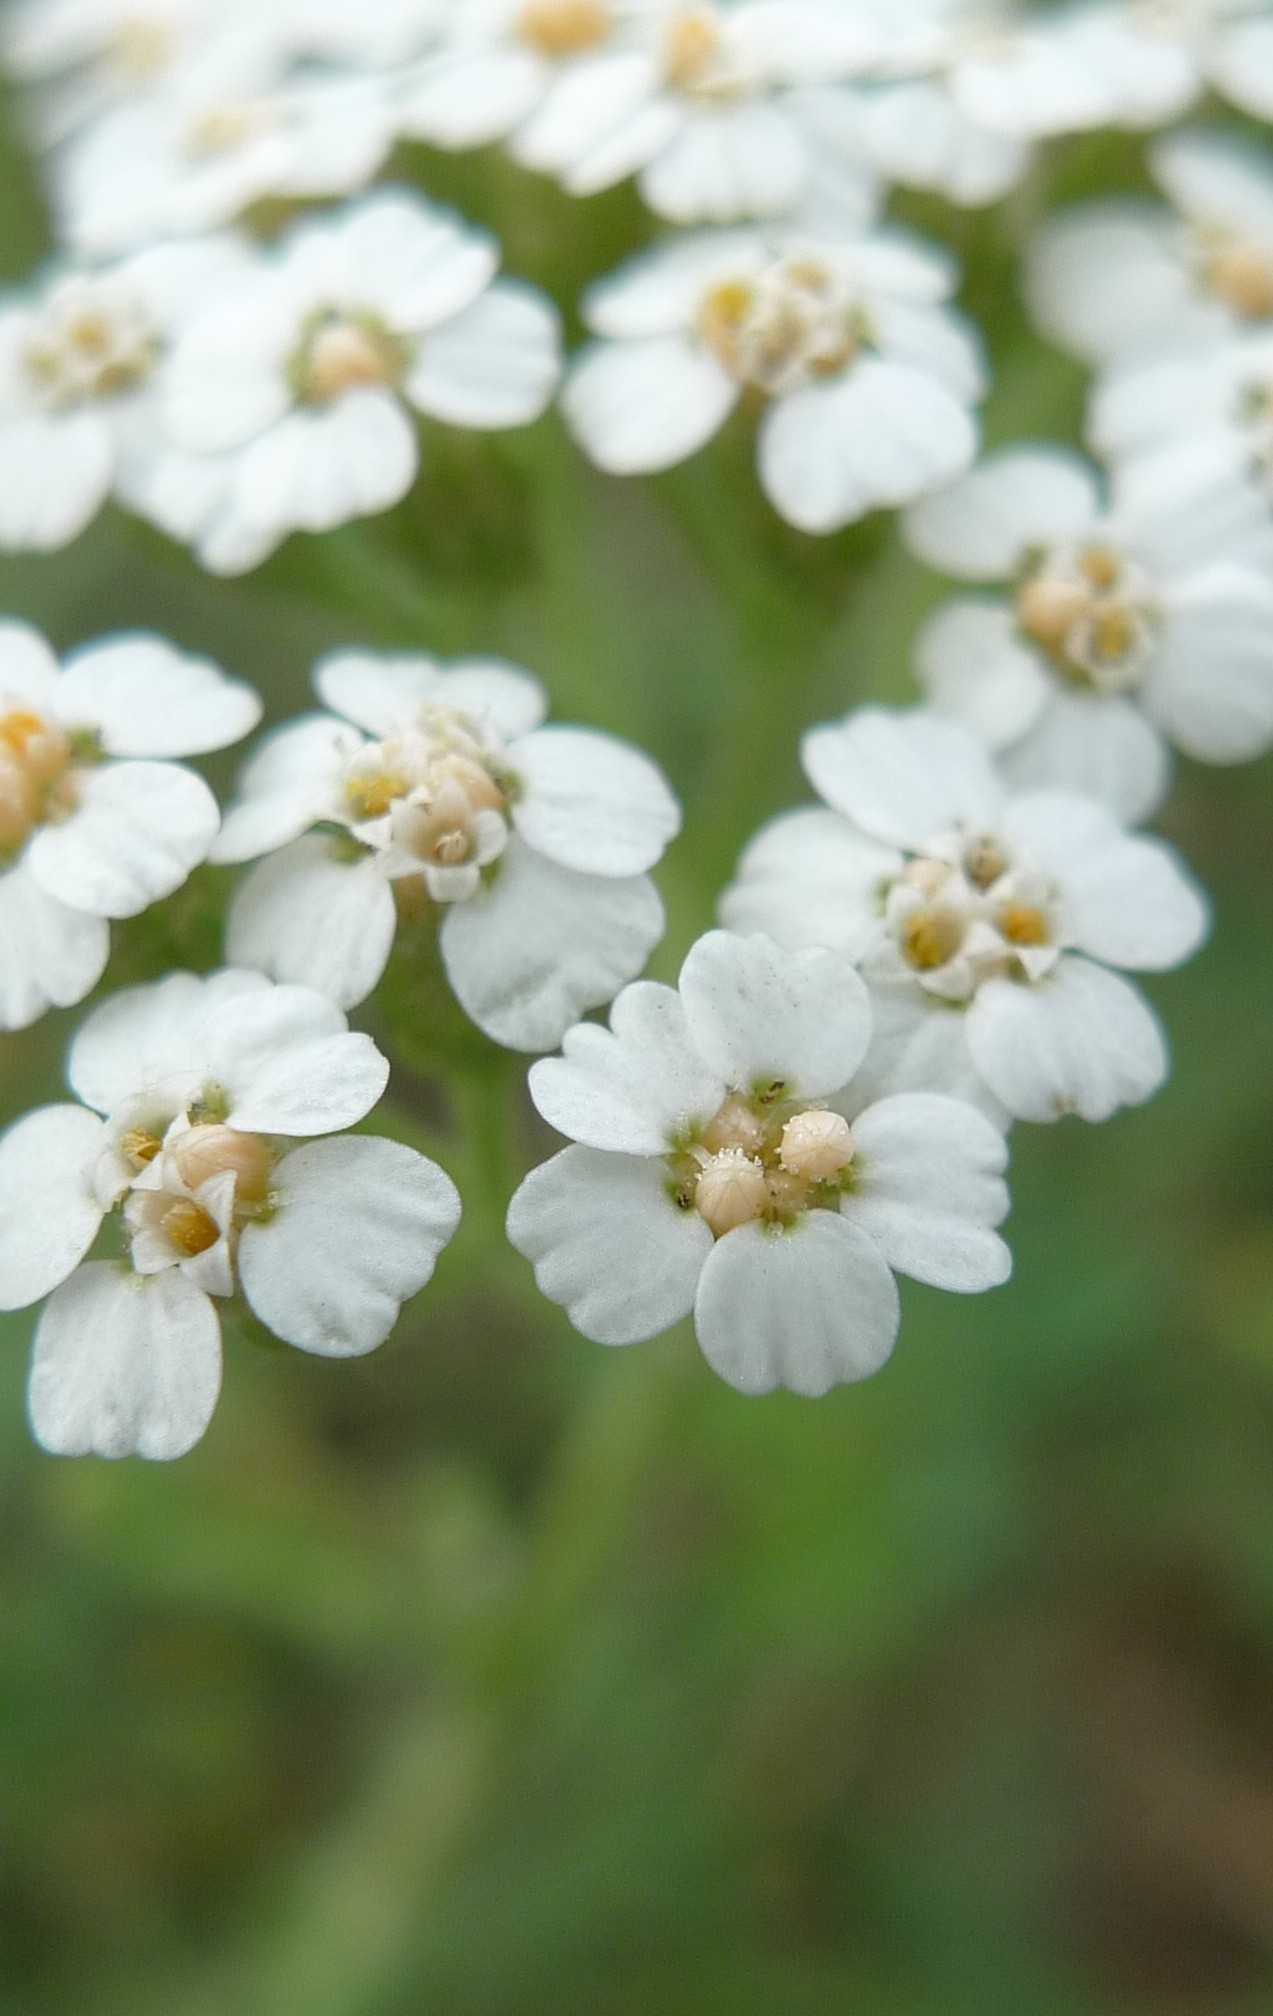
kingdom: Plantae
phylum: Tracheophyta
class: Magnoliopsida
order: Asterales
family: Asteraceae
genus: Achillea
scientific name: Achillea millefolium
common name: Yarrow
